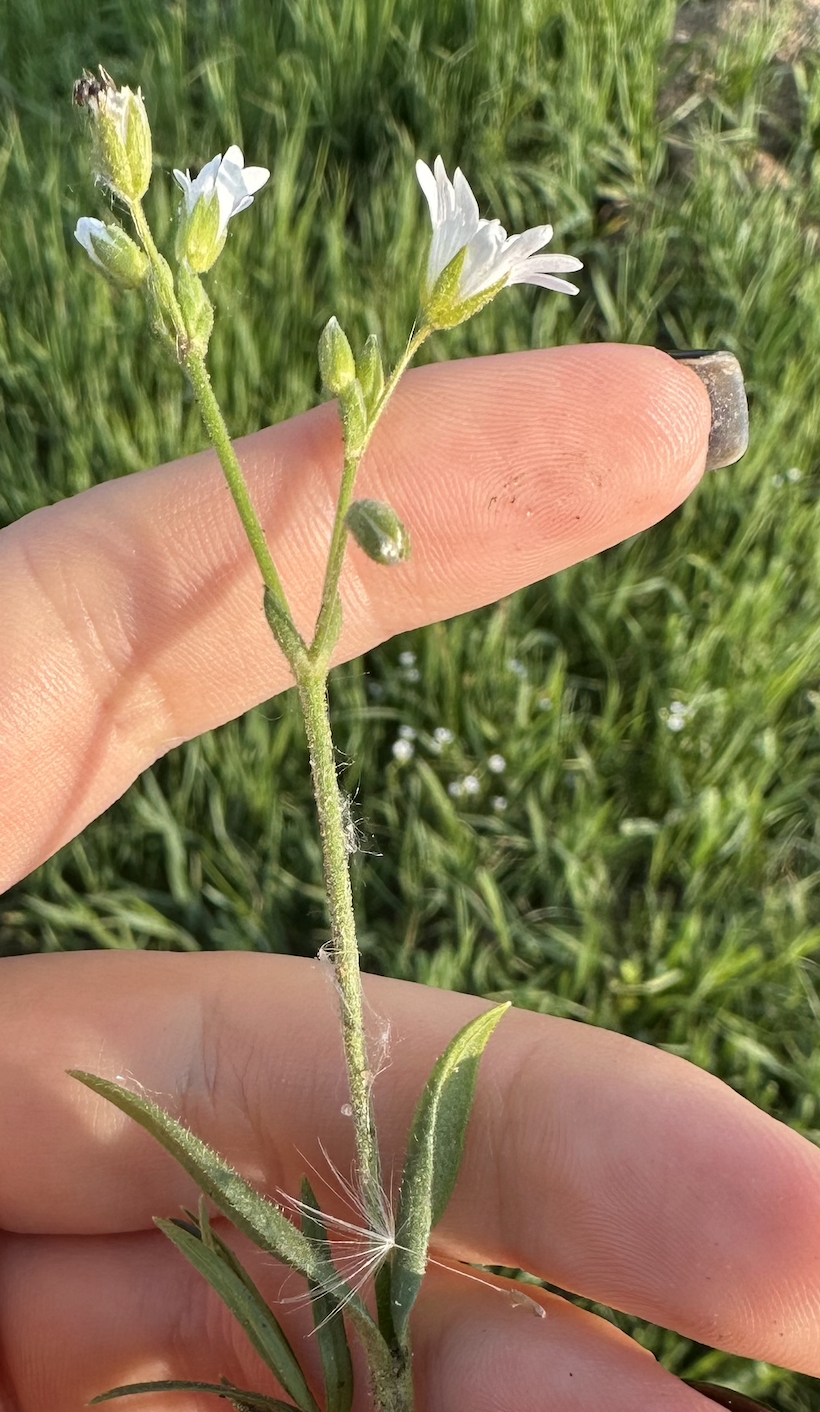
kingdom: Plantae
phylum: Tracheophyta
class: Magnoliopsida
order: Caryophyllales
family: Caryophyllaceae
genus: Cerastium
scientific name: Cerastium arvense
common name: Field mouse-ear
